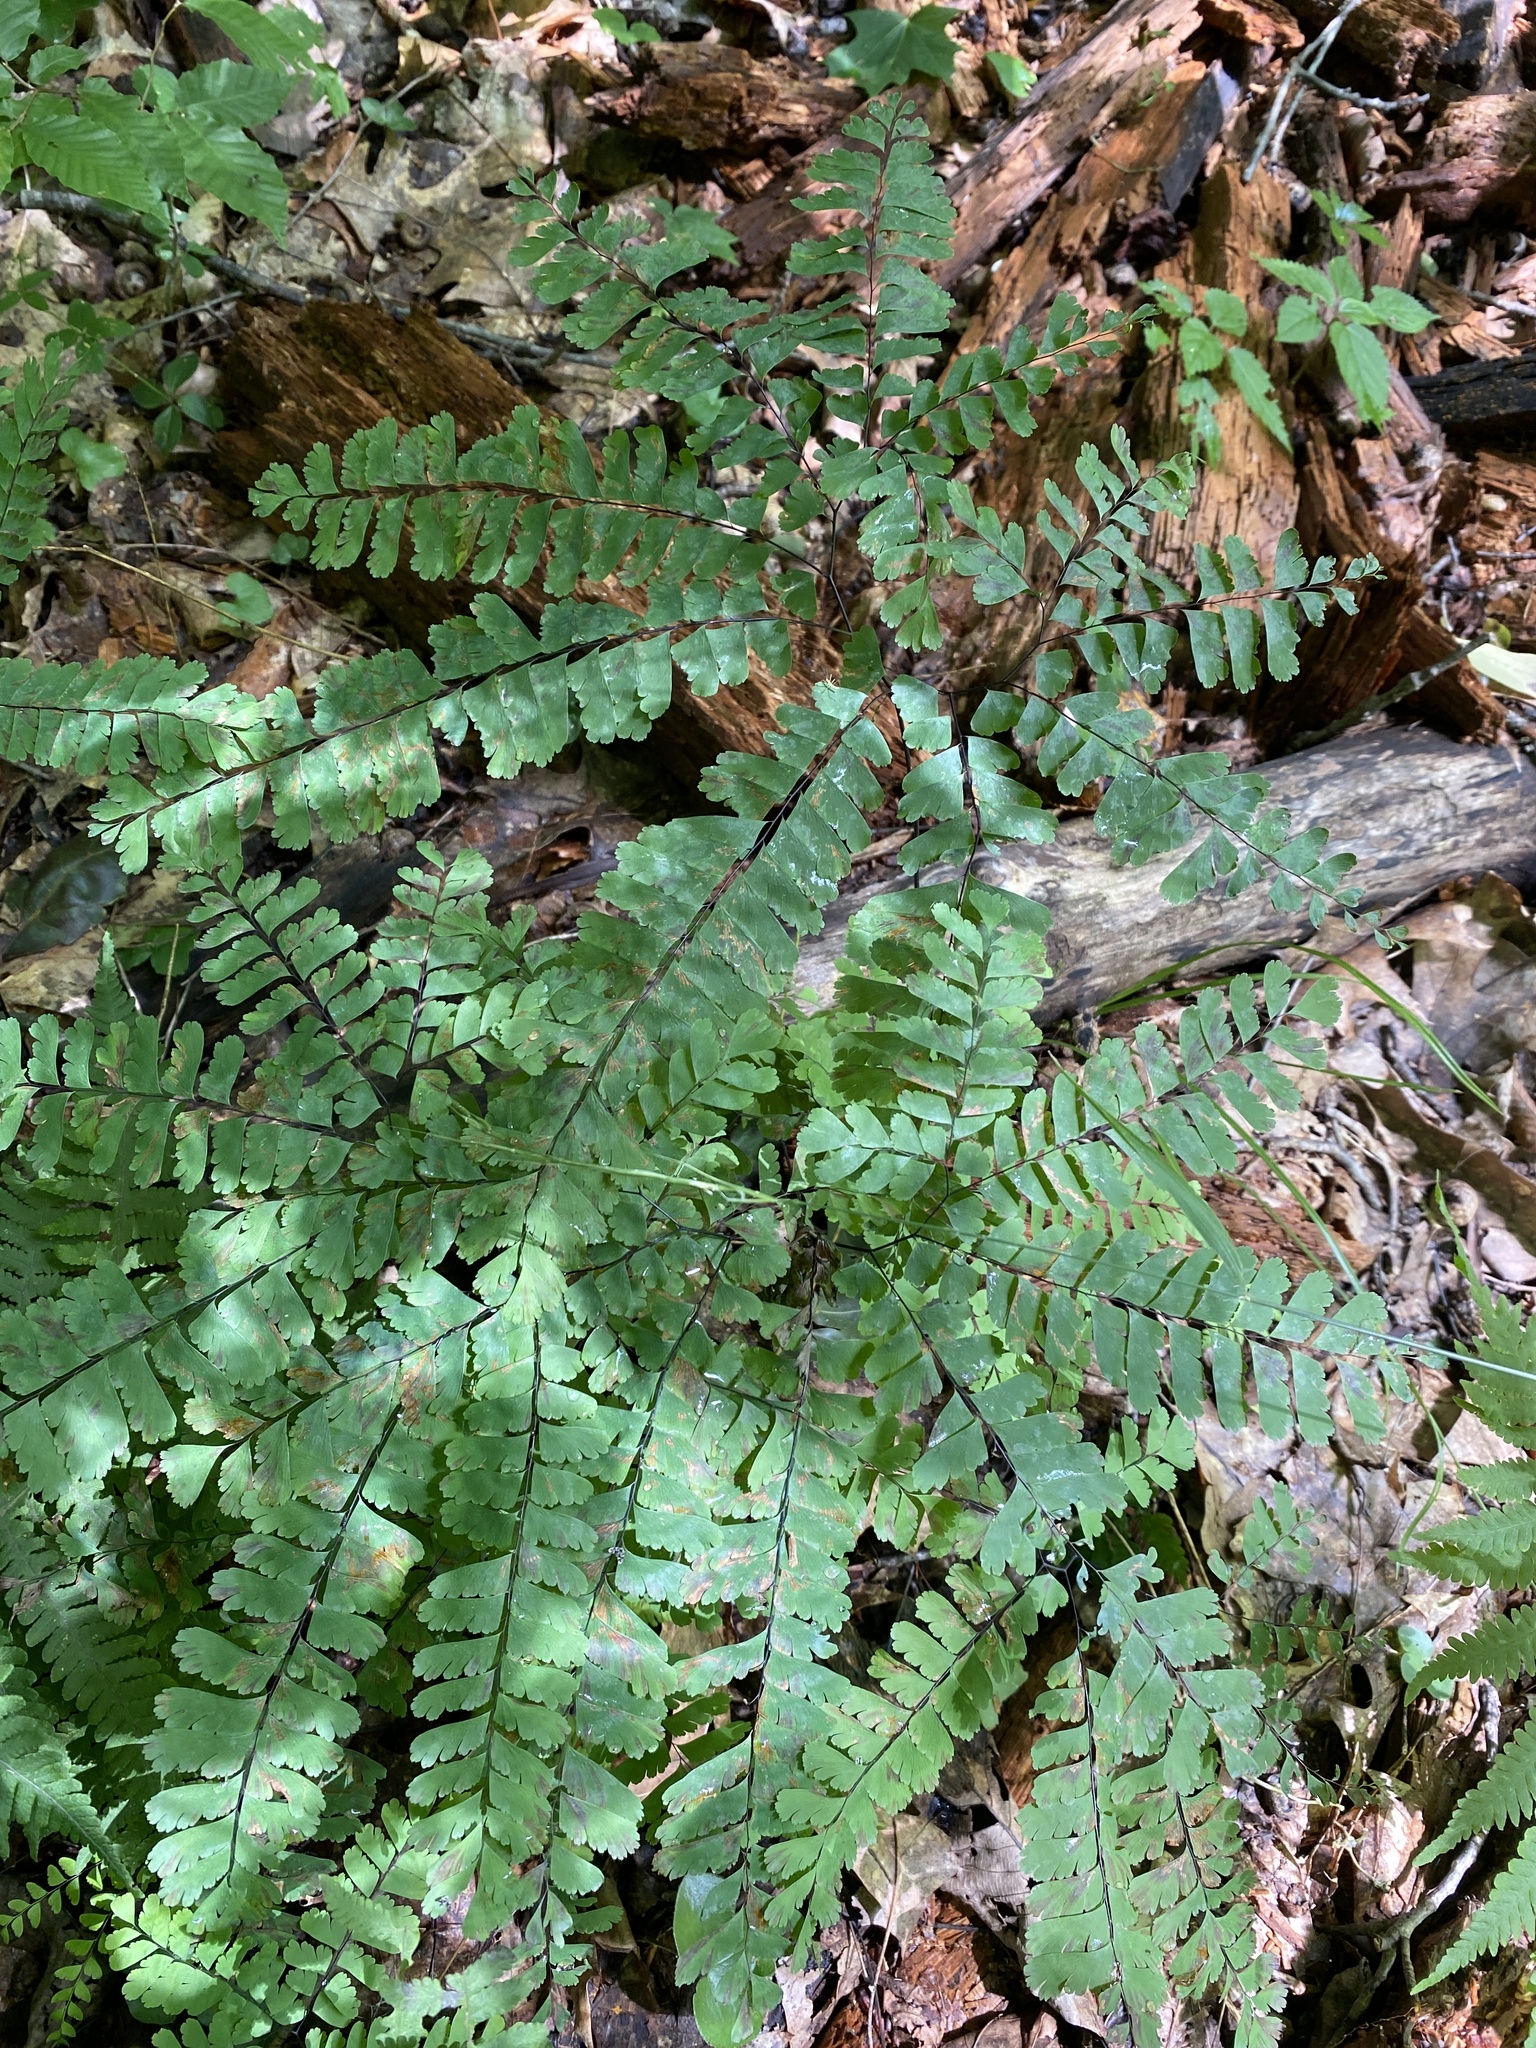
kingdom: Plantae
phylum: Tracheophyta
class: Polypodiopsida
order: Polypodiales
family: Pteridaceae
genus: Adiantum
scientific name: Adiantum pedatum
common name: Five-finger fern
